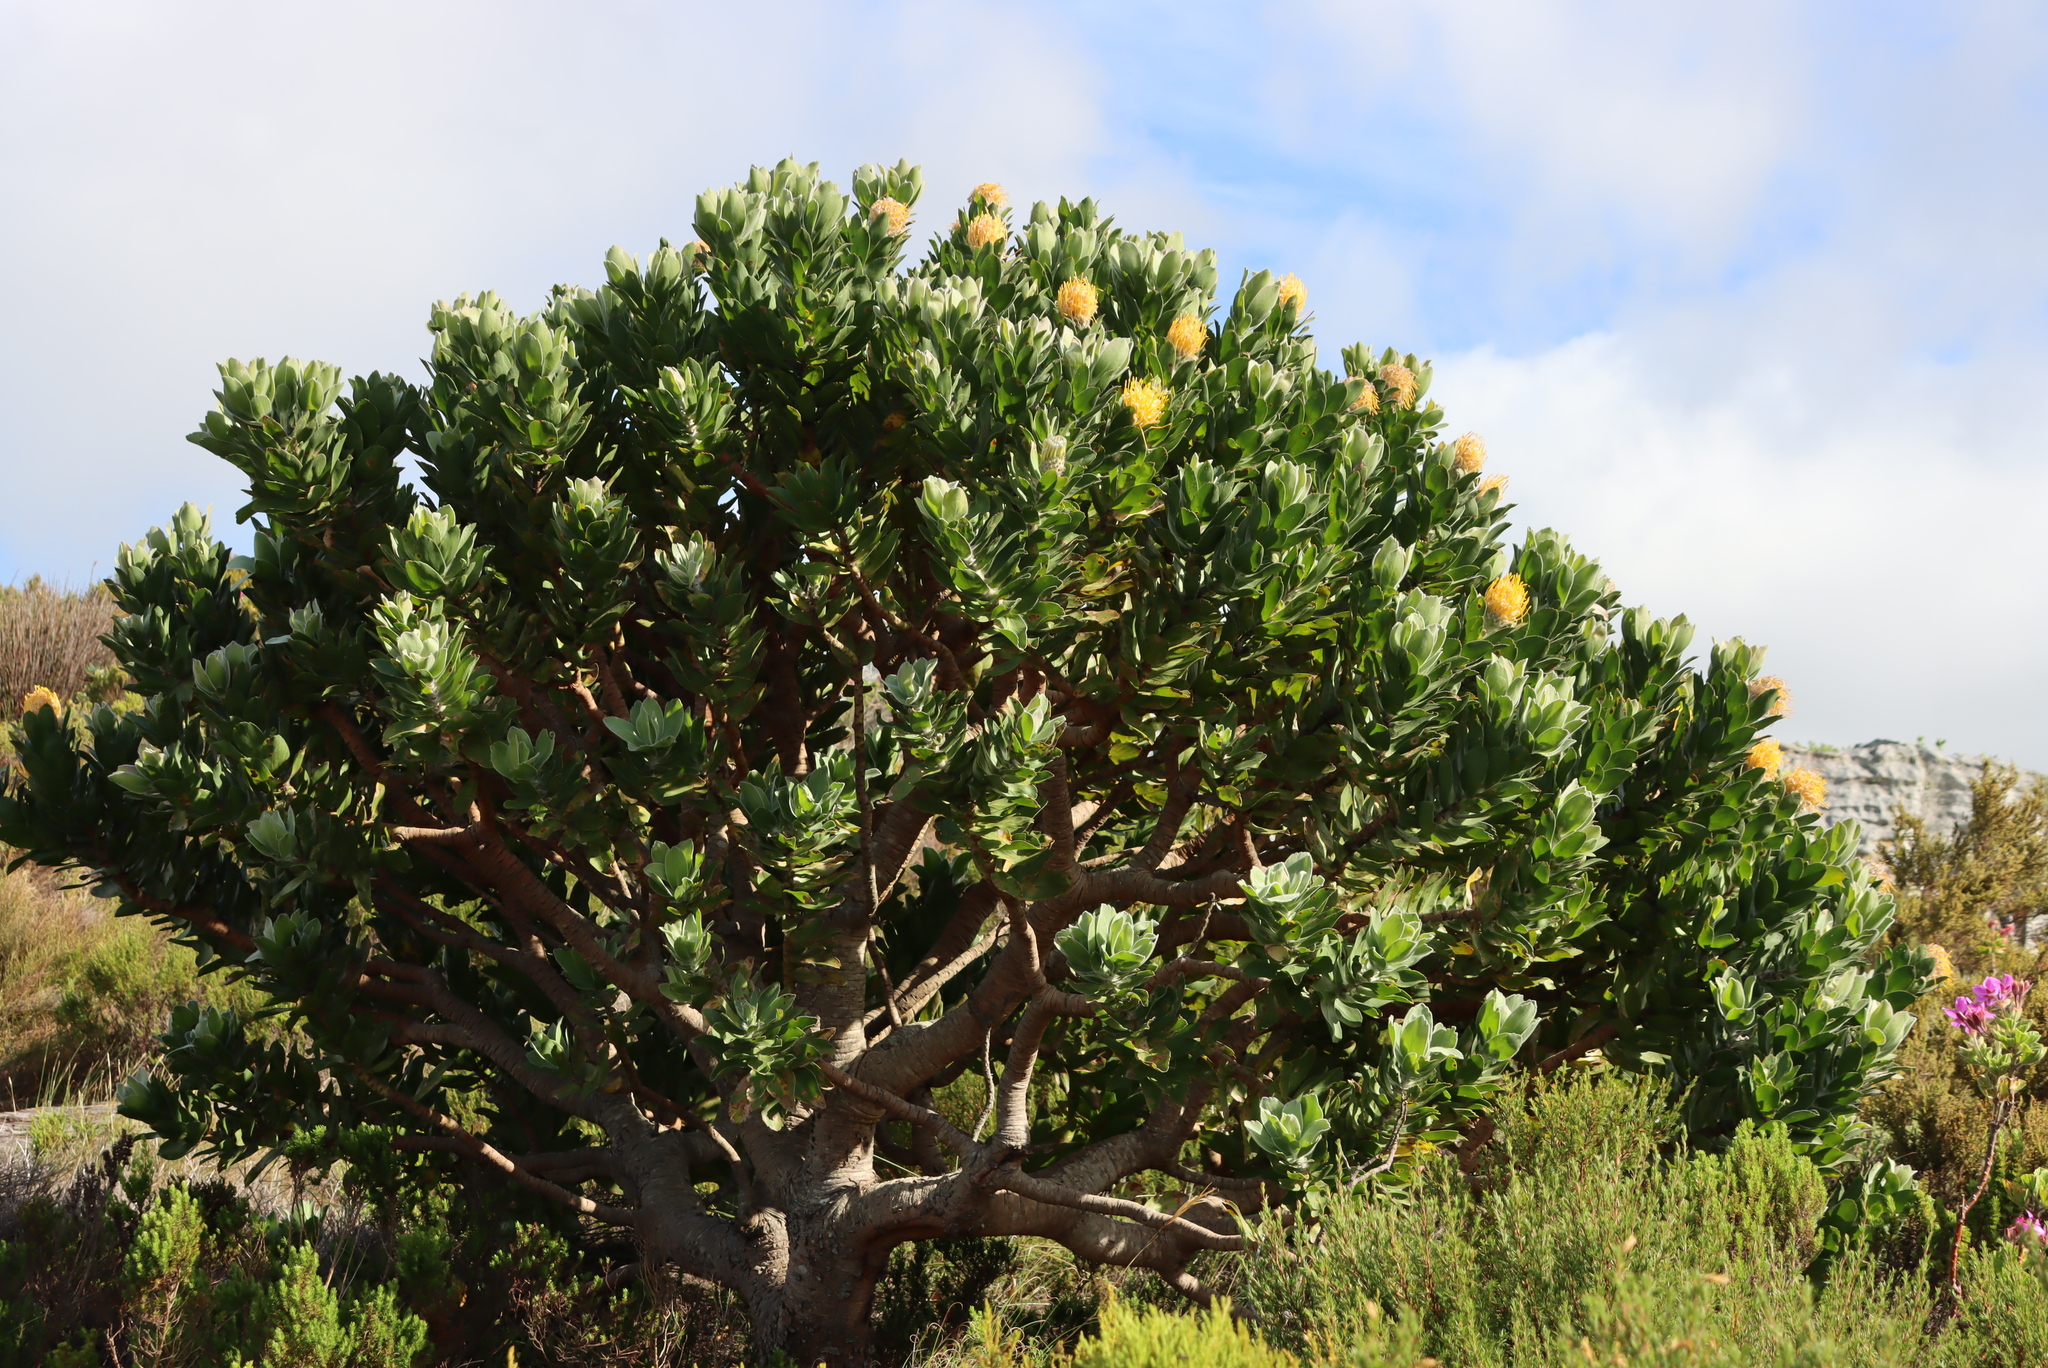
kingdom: Plantae
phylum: Tracheophyta
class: Magnoliopsida
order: Proteales
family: Proteaceae
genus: Leucospermum
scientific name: Leucospermum conocarpodendron
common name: Tree pincushion
